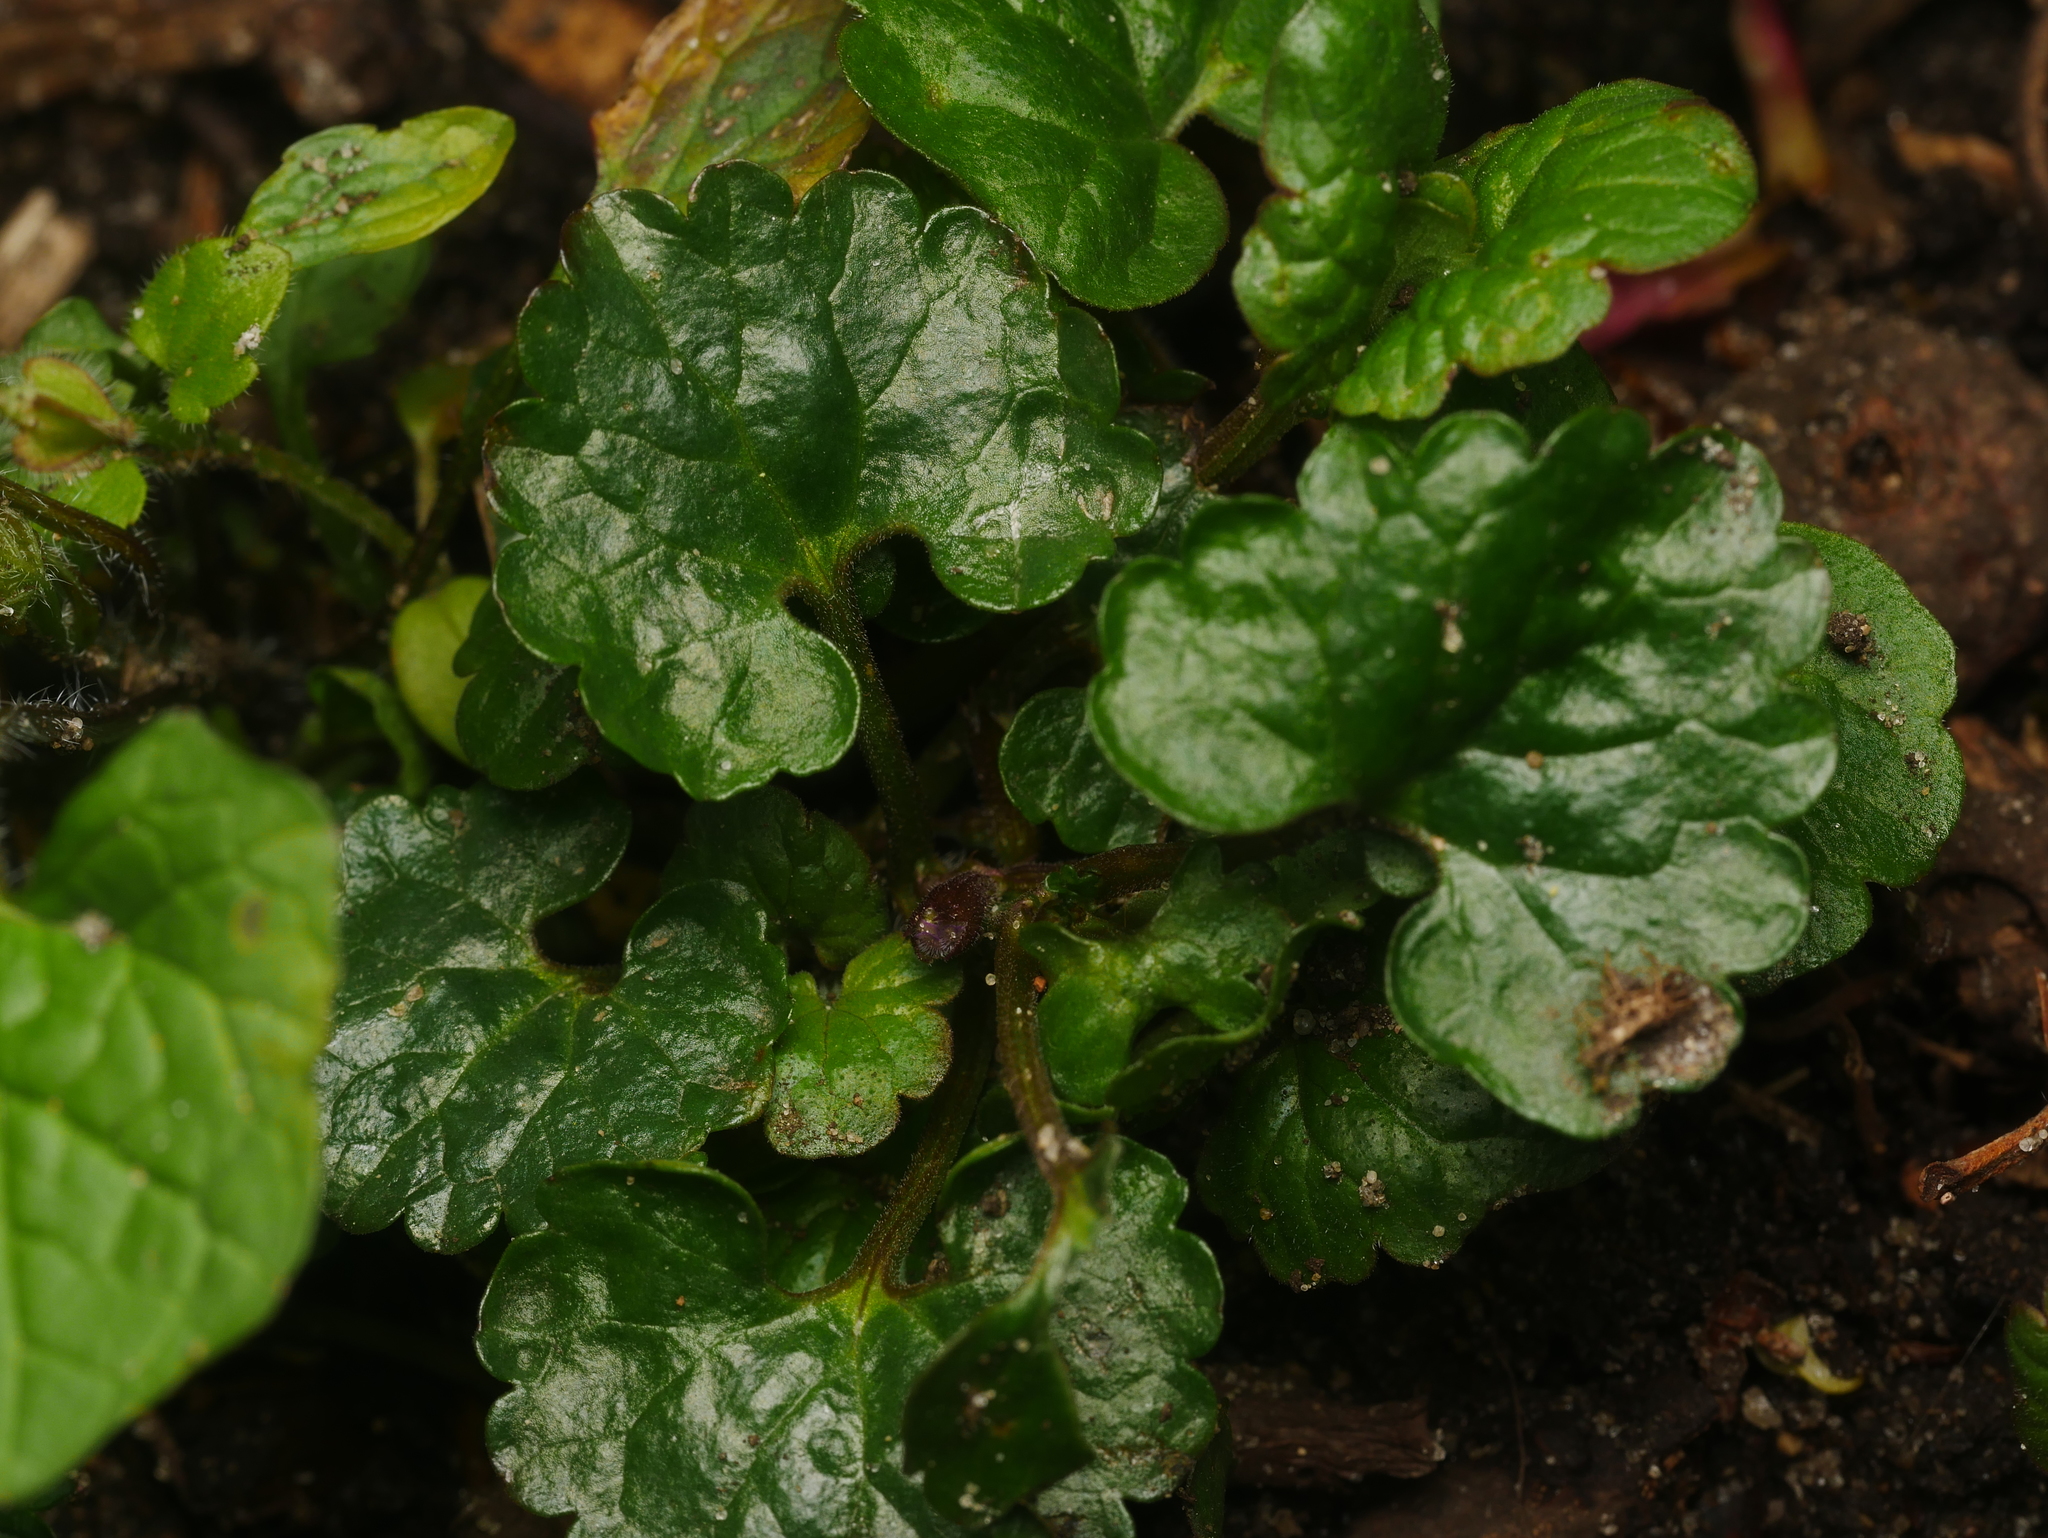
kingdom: Plantae
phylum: Tracheophyta
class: Magnoliopsida
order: Lamiales
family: Lamiaceae
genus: Glechoma
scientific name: Glechoma hederacea
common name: Ground ivy
